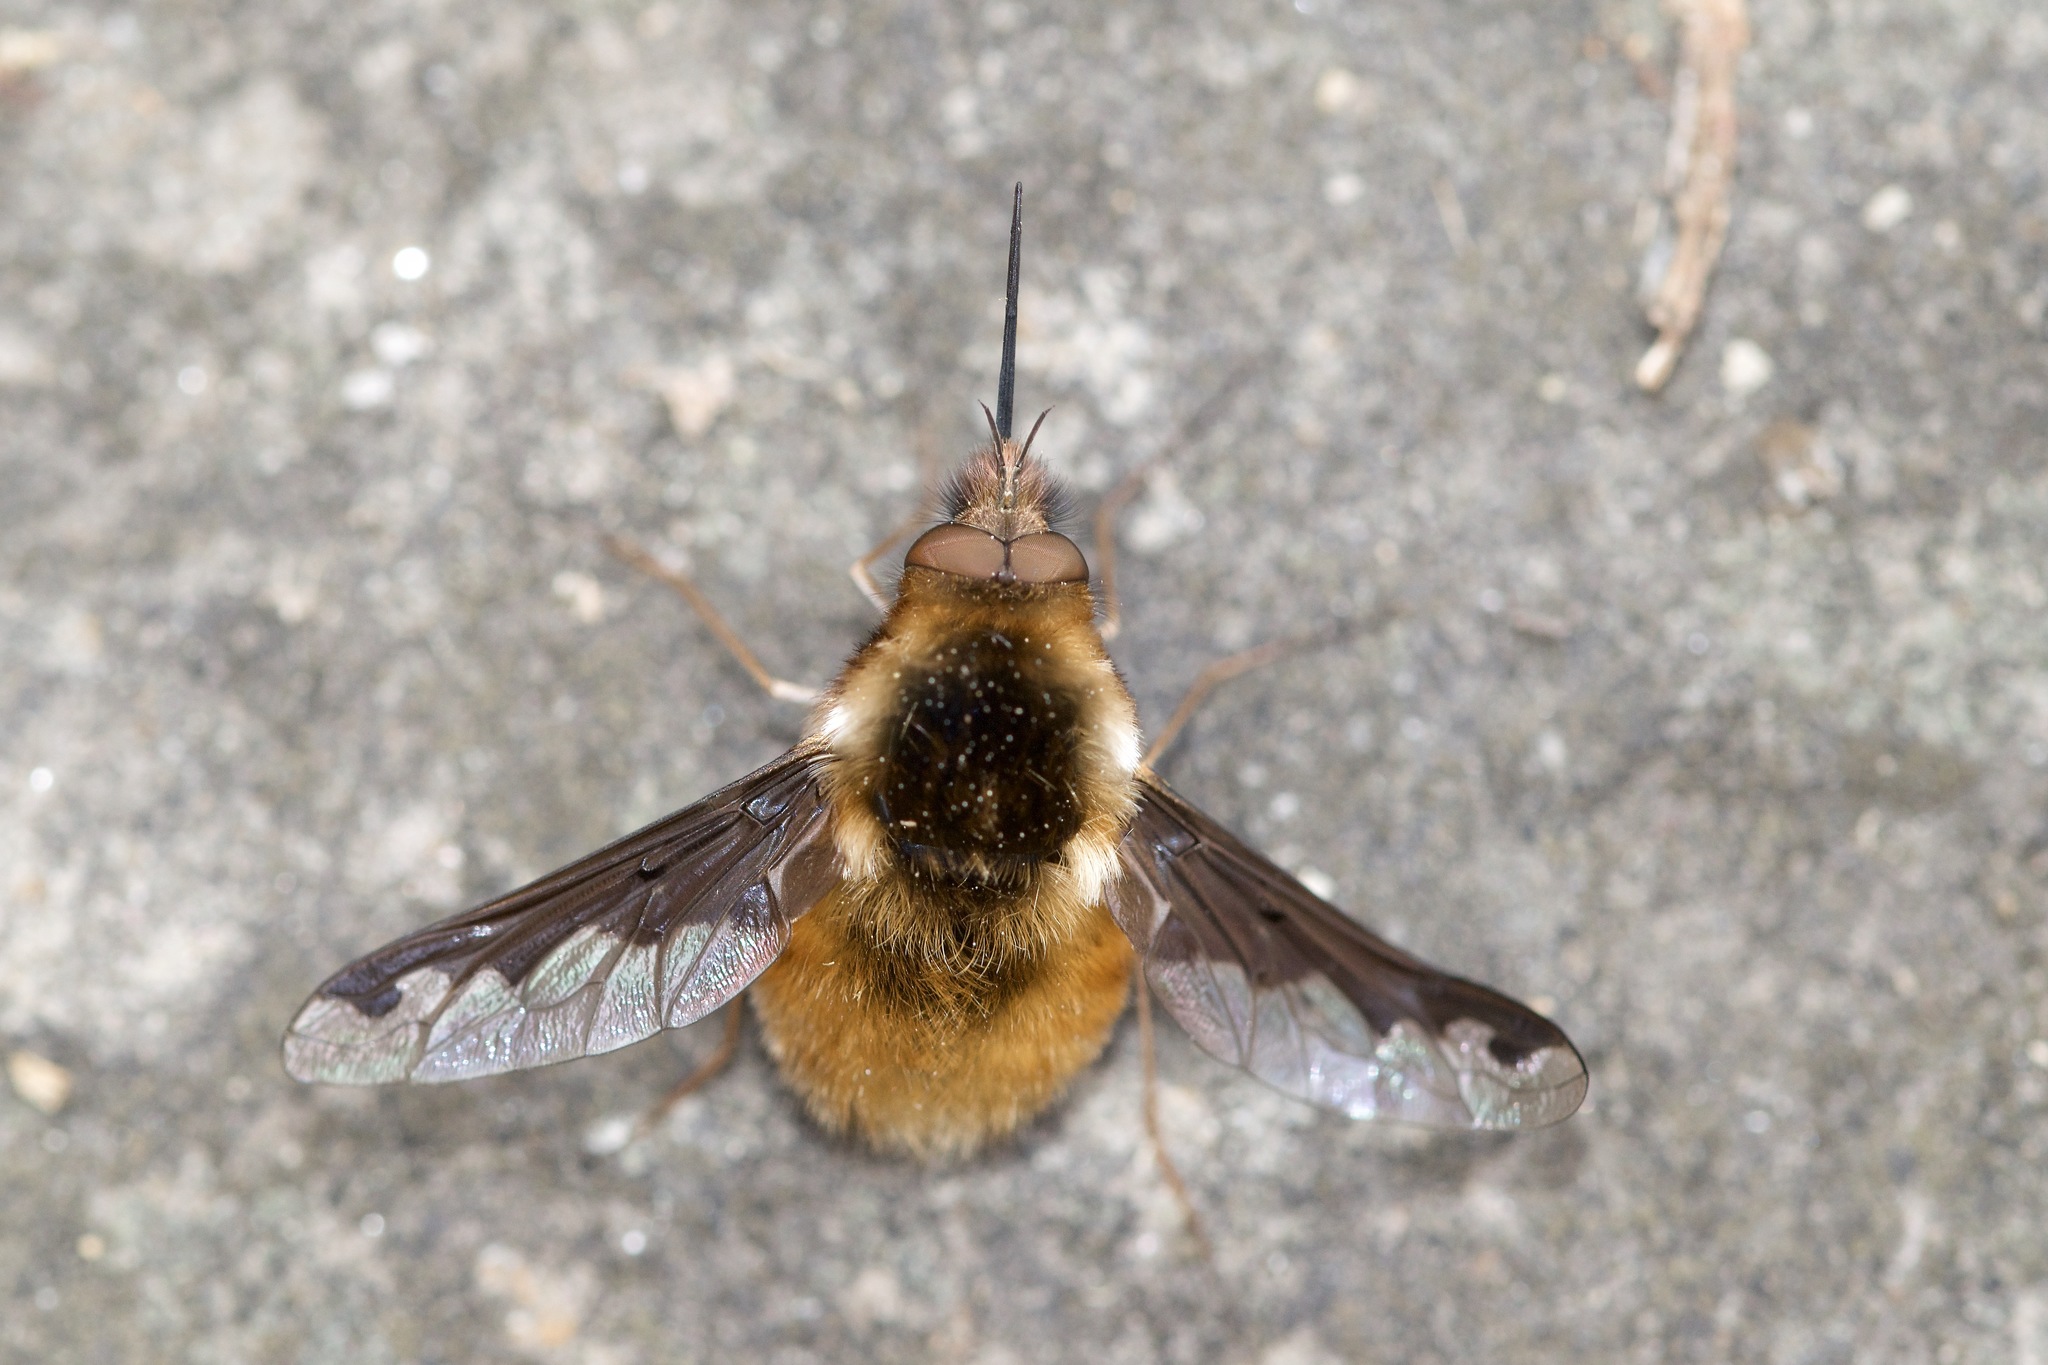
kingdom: Animalia
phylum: Arthropoda
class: Insecta
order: Diptera
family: Bombyliidae
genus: Bombylius
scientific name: Bombylius major
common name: Bee fly
